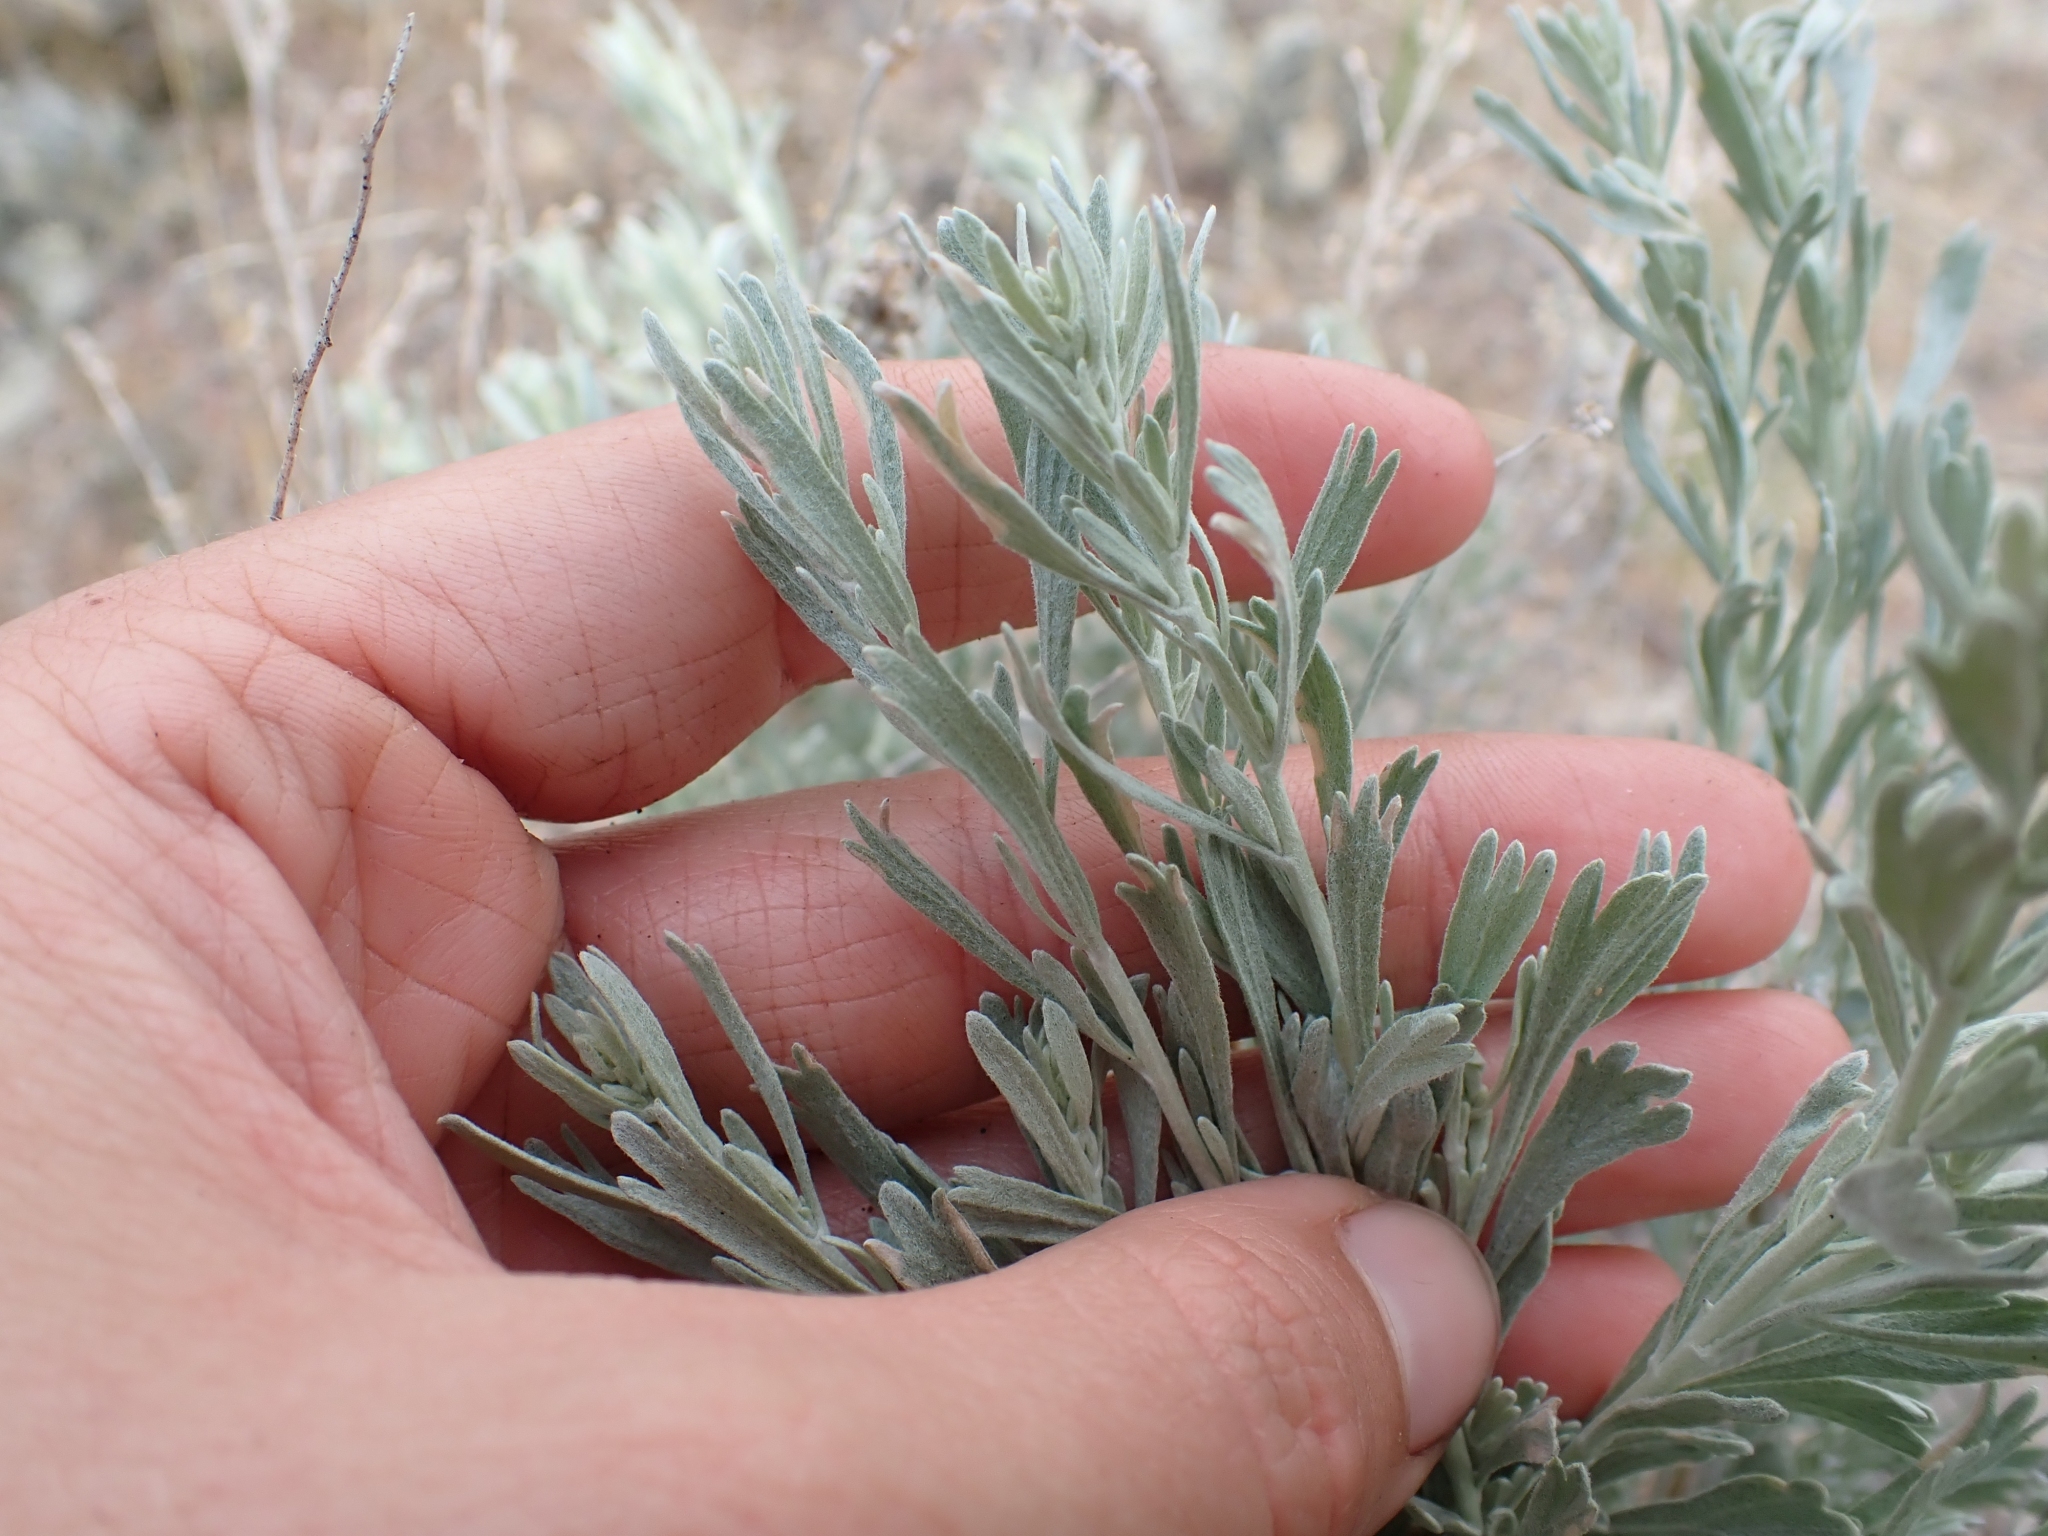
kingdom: Plantae
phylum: Tracheophyta
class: Magnoliopsida
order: Asterales
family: Asteraceae
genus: Artemisia
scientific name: Artemisia tridentata
